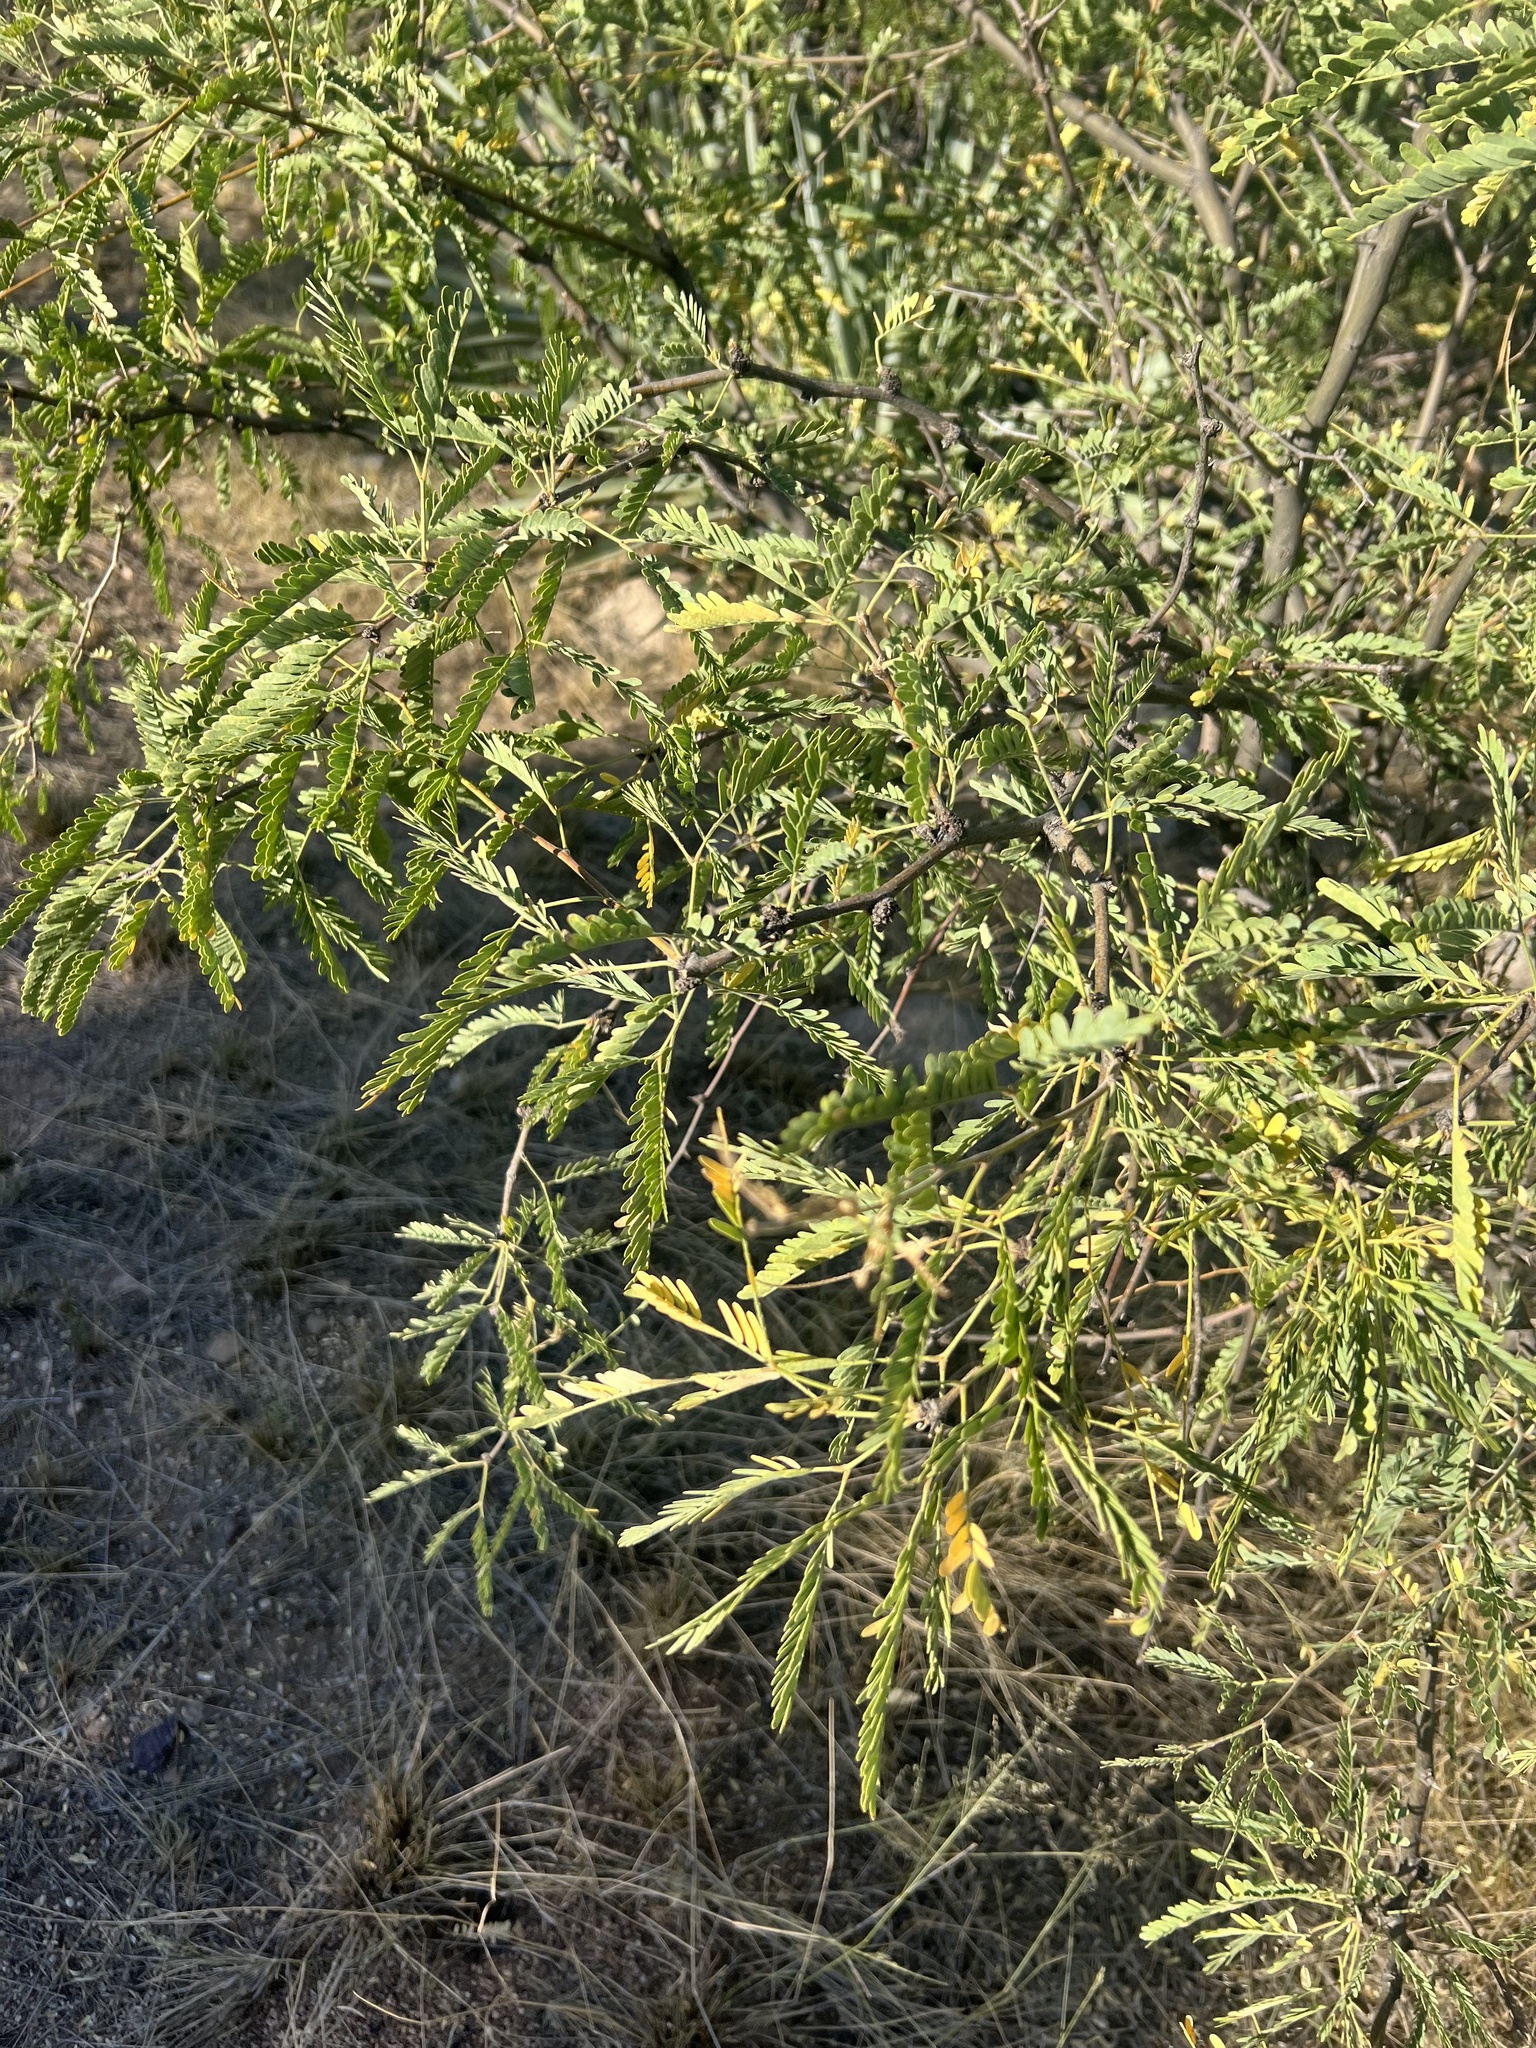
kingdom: Plantae
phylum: Tracheophyta
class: Magnoliopsida
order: Fabales
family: Fabaceae
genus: Prosopis
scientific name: Prosopis velutina
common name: Velvet mesquite
